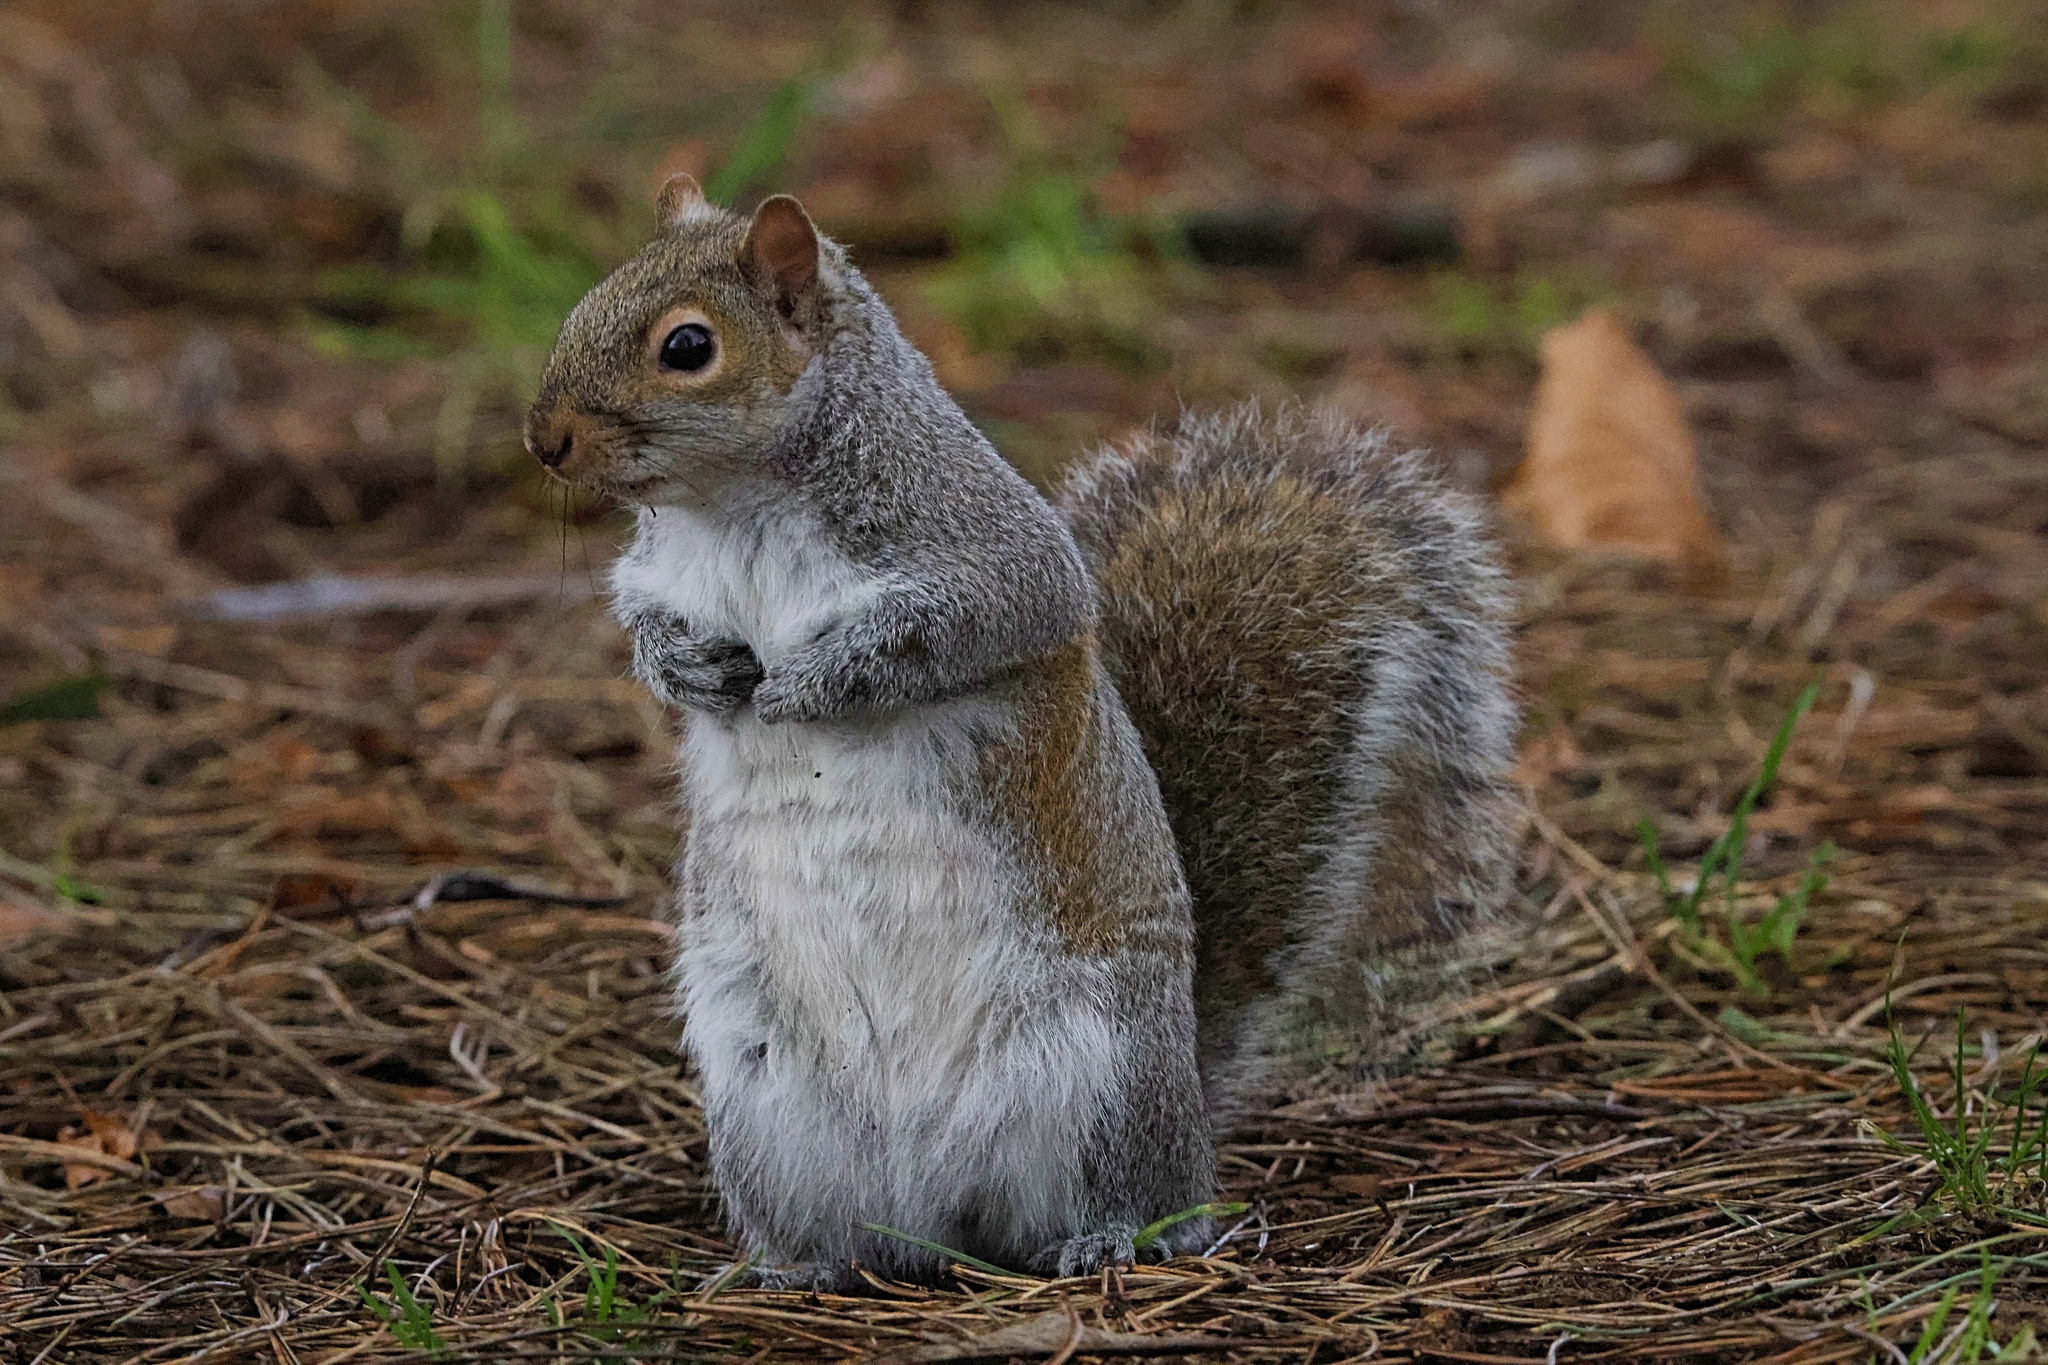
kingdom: Animalia
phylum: Chordata
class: Mammalia
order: Rodentia
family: Sciuridae
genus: Sciurus
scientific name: Sciurus carolinensis
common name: Eastern gray squirrel
